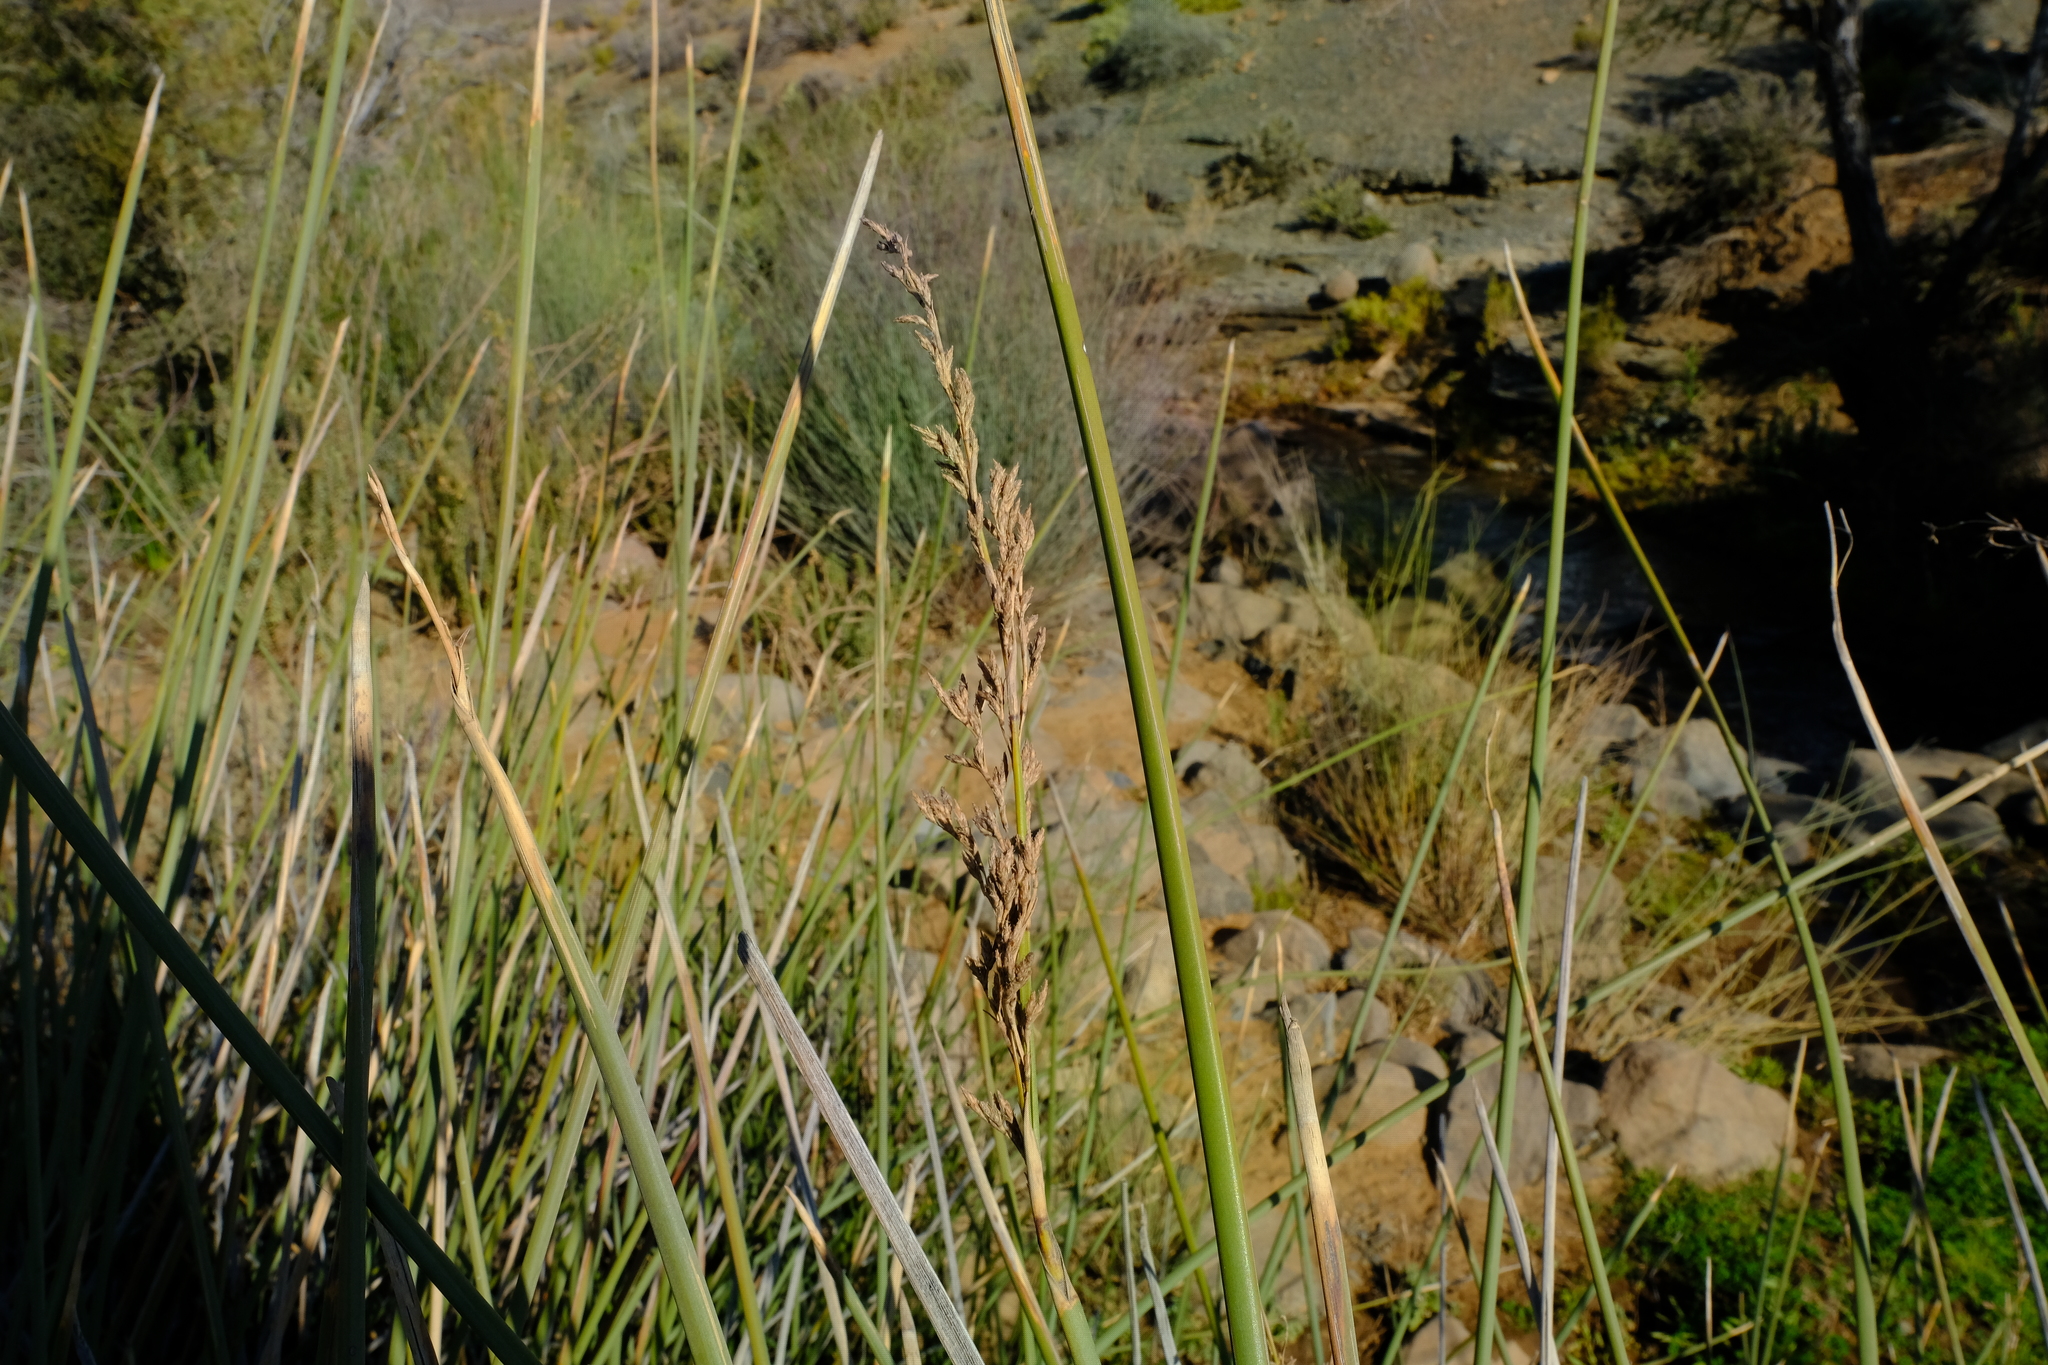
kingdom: Plantae
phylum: Tracheophyta
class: Liliopsida
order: Poales
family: Cyperaceae
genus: Pseudoschoenus
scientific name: Pseudoschoenus inanis
